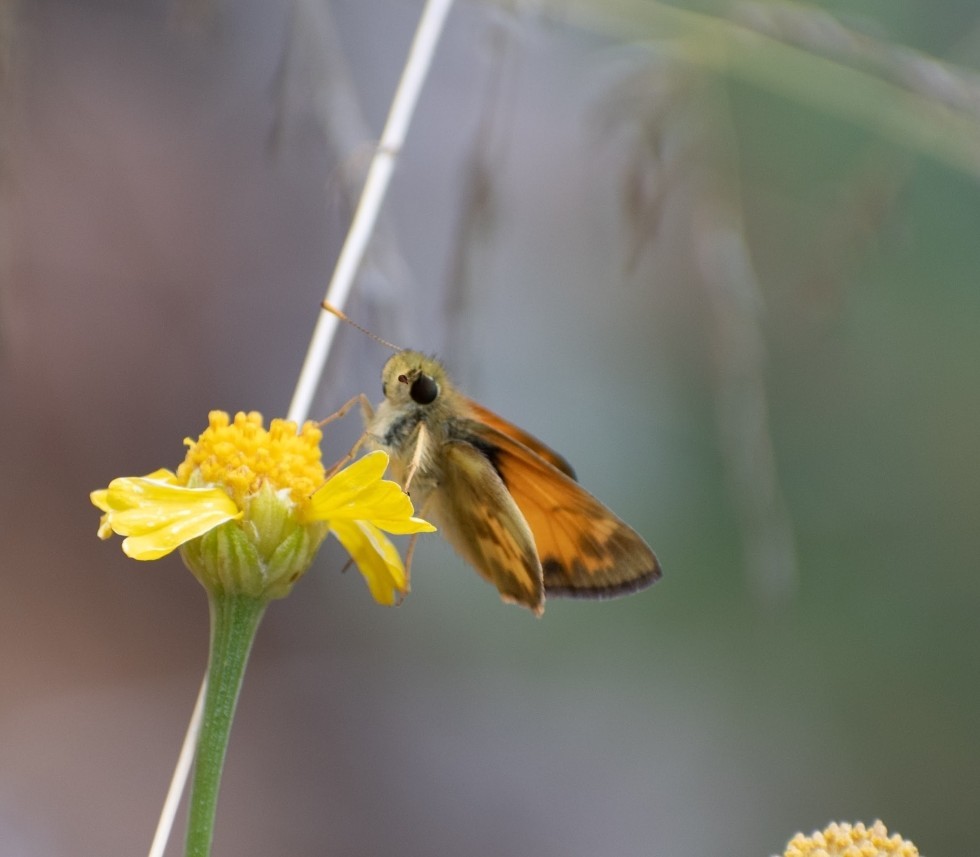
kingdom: Animalia
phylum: Arthropoda
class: Insecta
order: Lepidoptera
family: Hesperiidae
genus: Lon
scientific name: Lon taxiles
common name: Taxiles skipper
